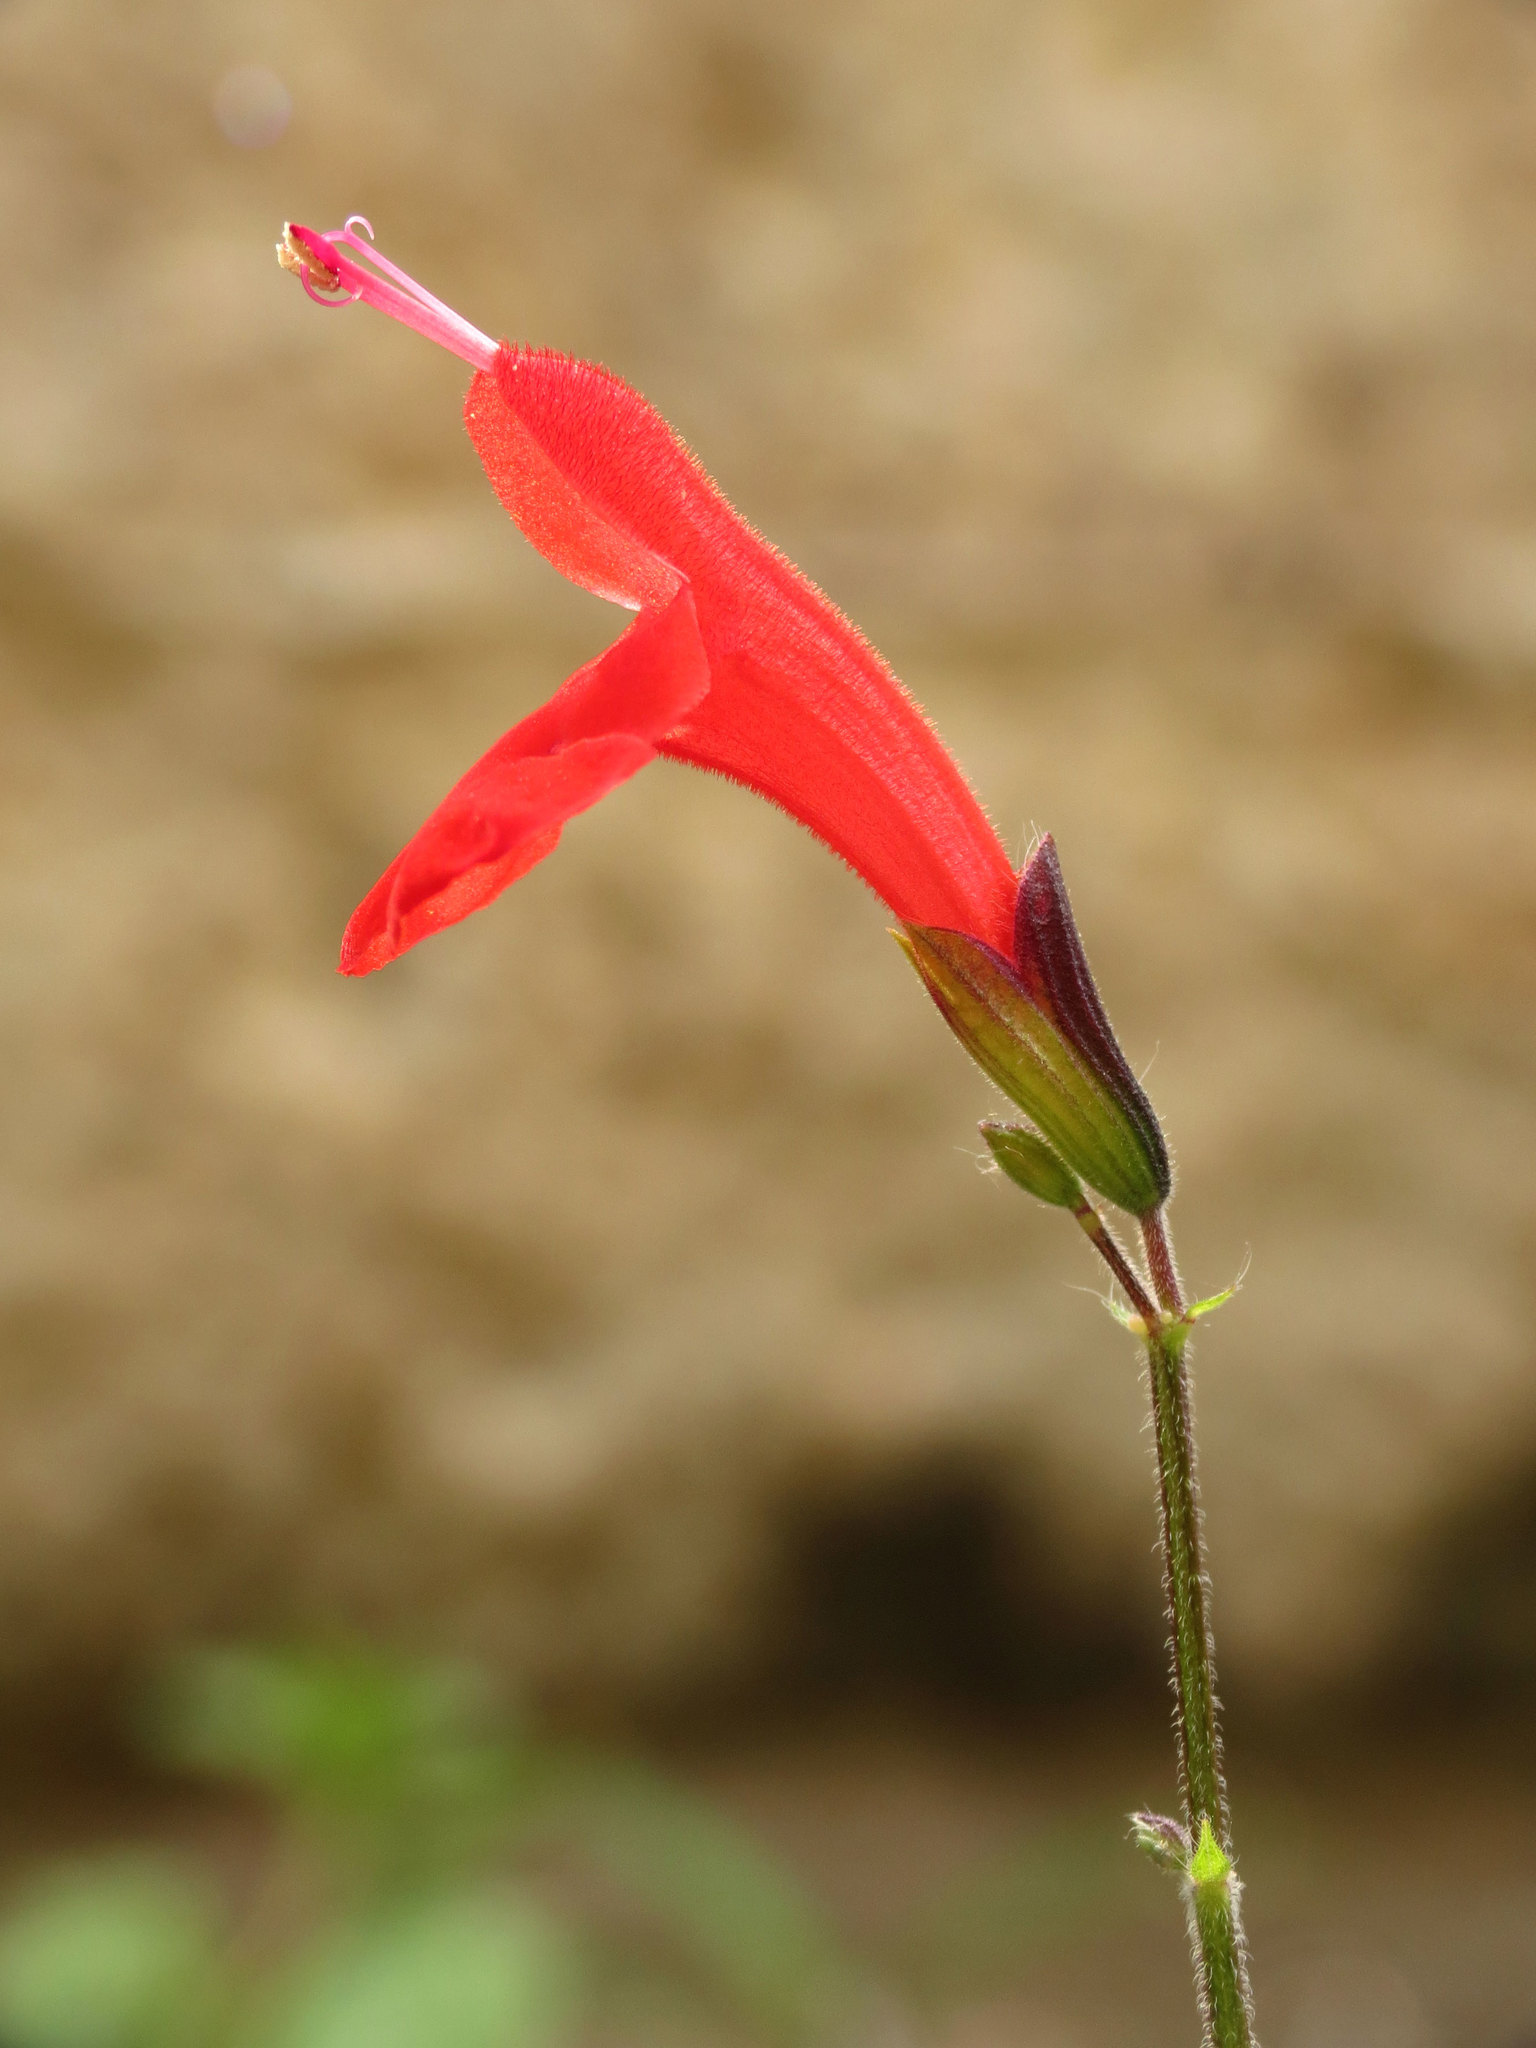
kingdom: Plantae
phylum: Tracheophyta
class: Magnoliopsida
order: Lamiales
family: Lamiaceae
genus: Salvia
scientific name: Salvia coccinea
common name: Blood sage
